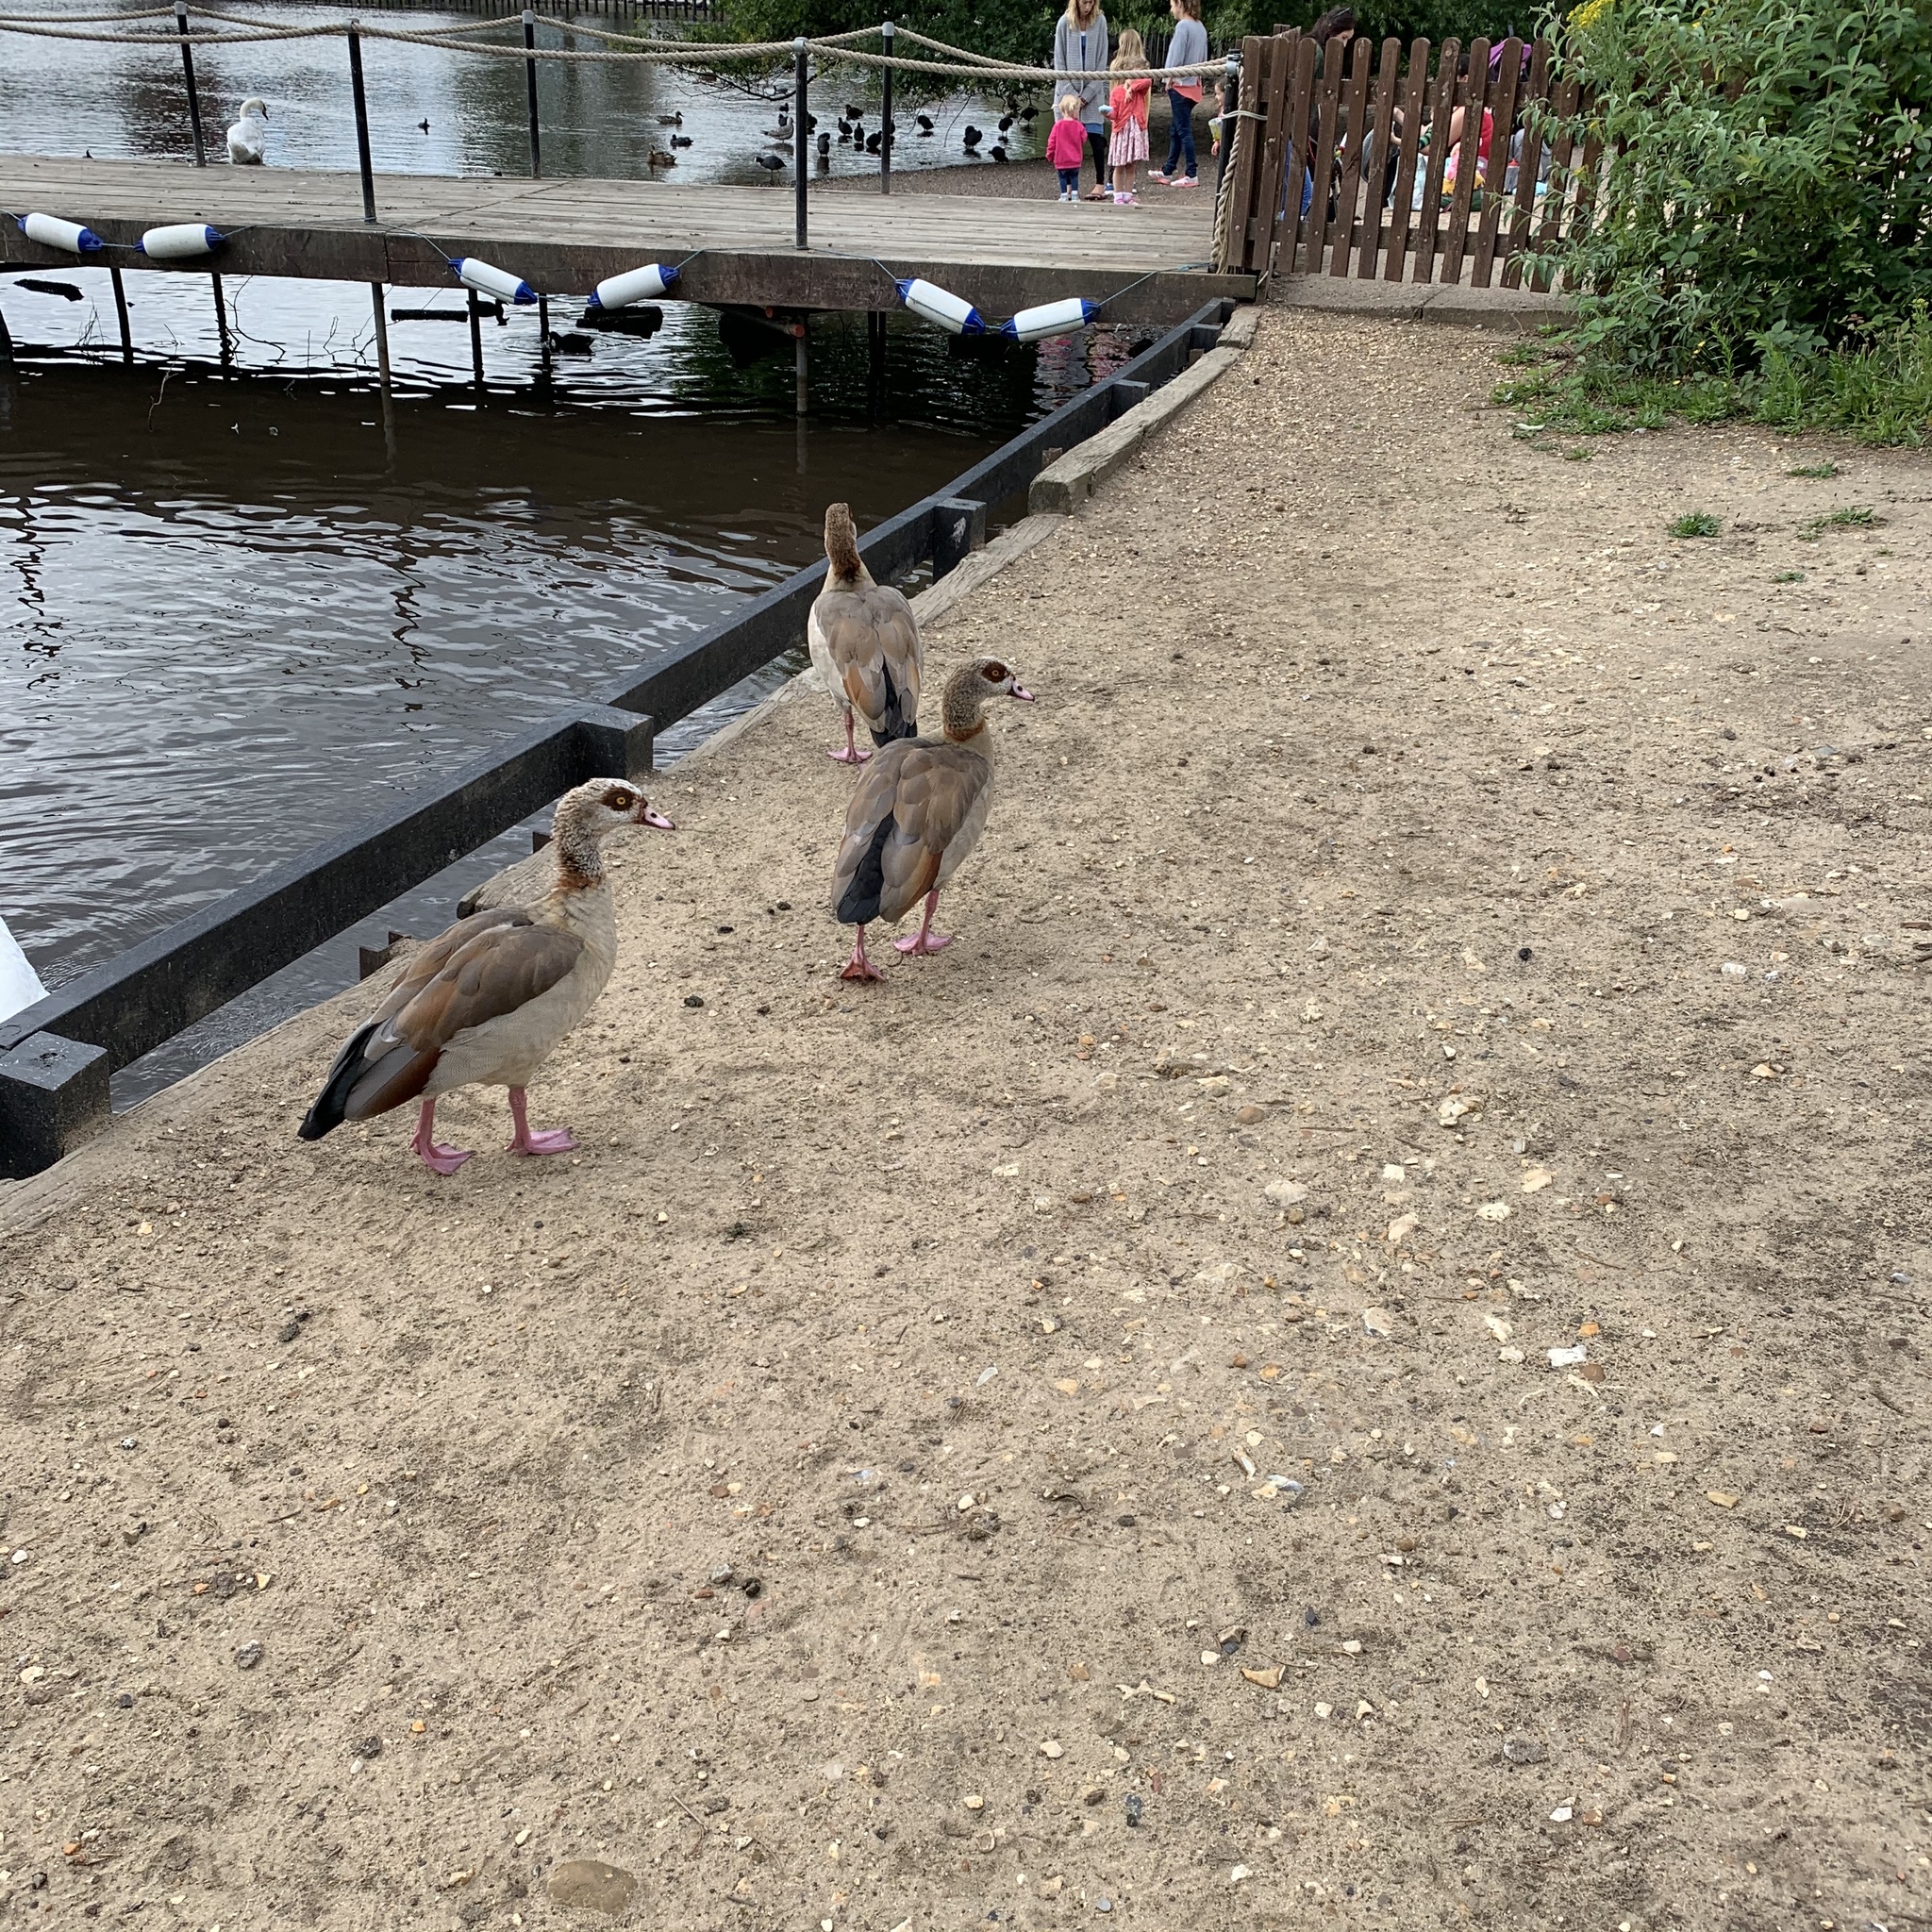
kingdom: Animalia
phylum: Chordata
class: Aves
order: Anseriformes
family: Anatidae
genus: Alopochen
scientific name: Alopochen aegyptiaca
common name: Egyptian goose
